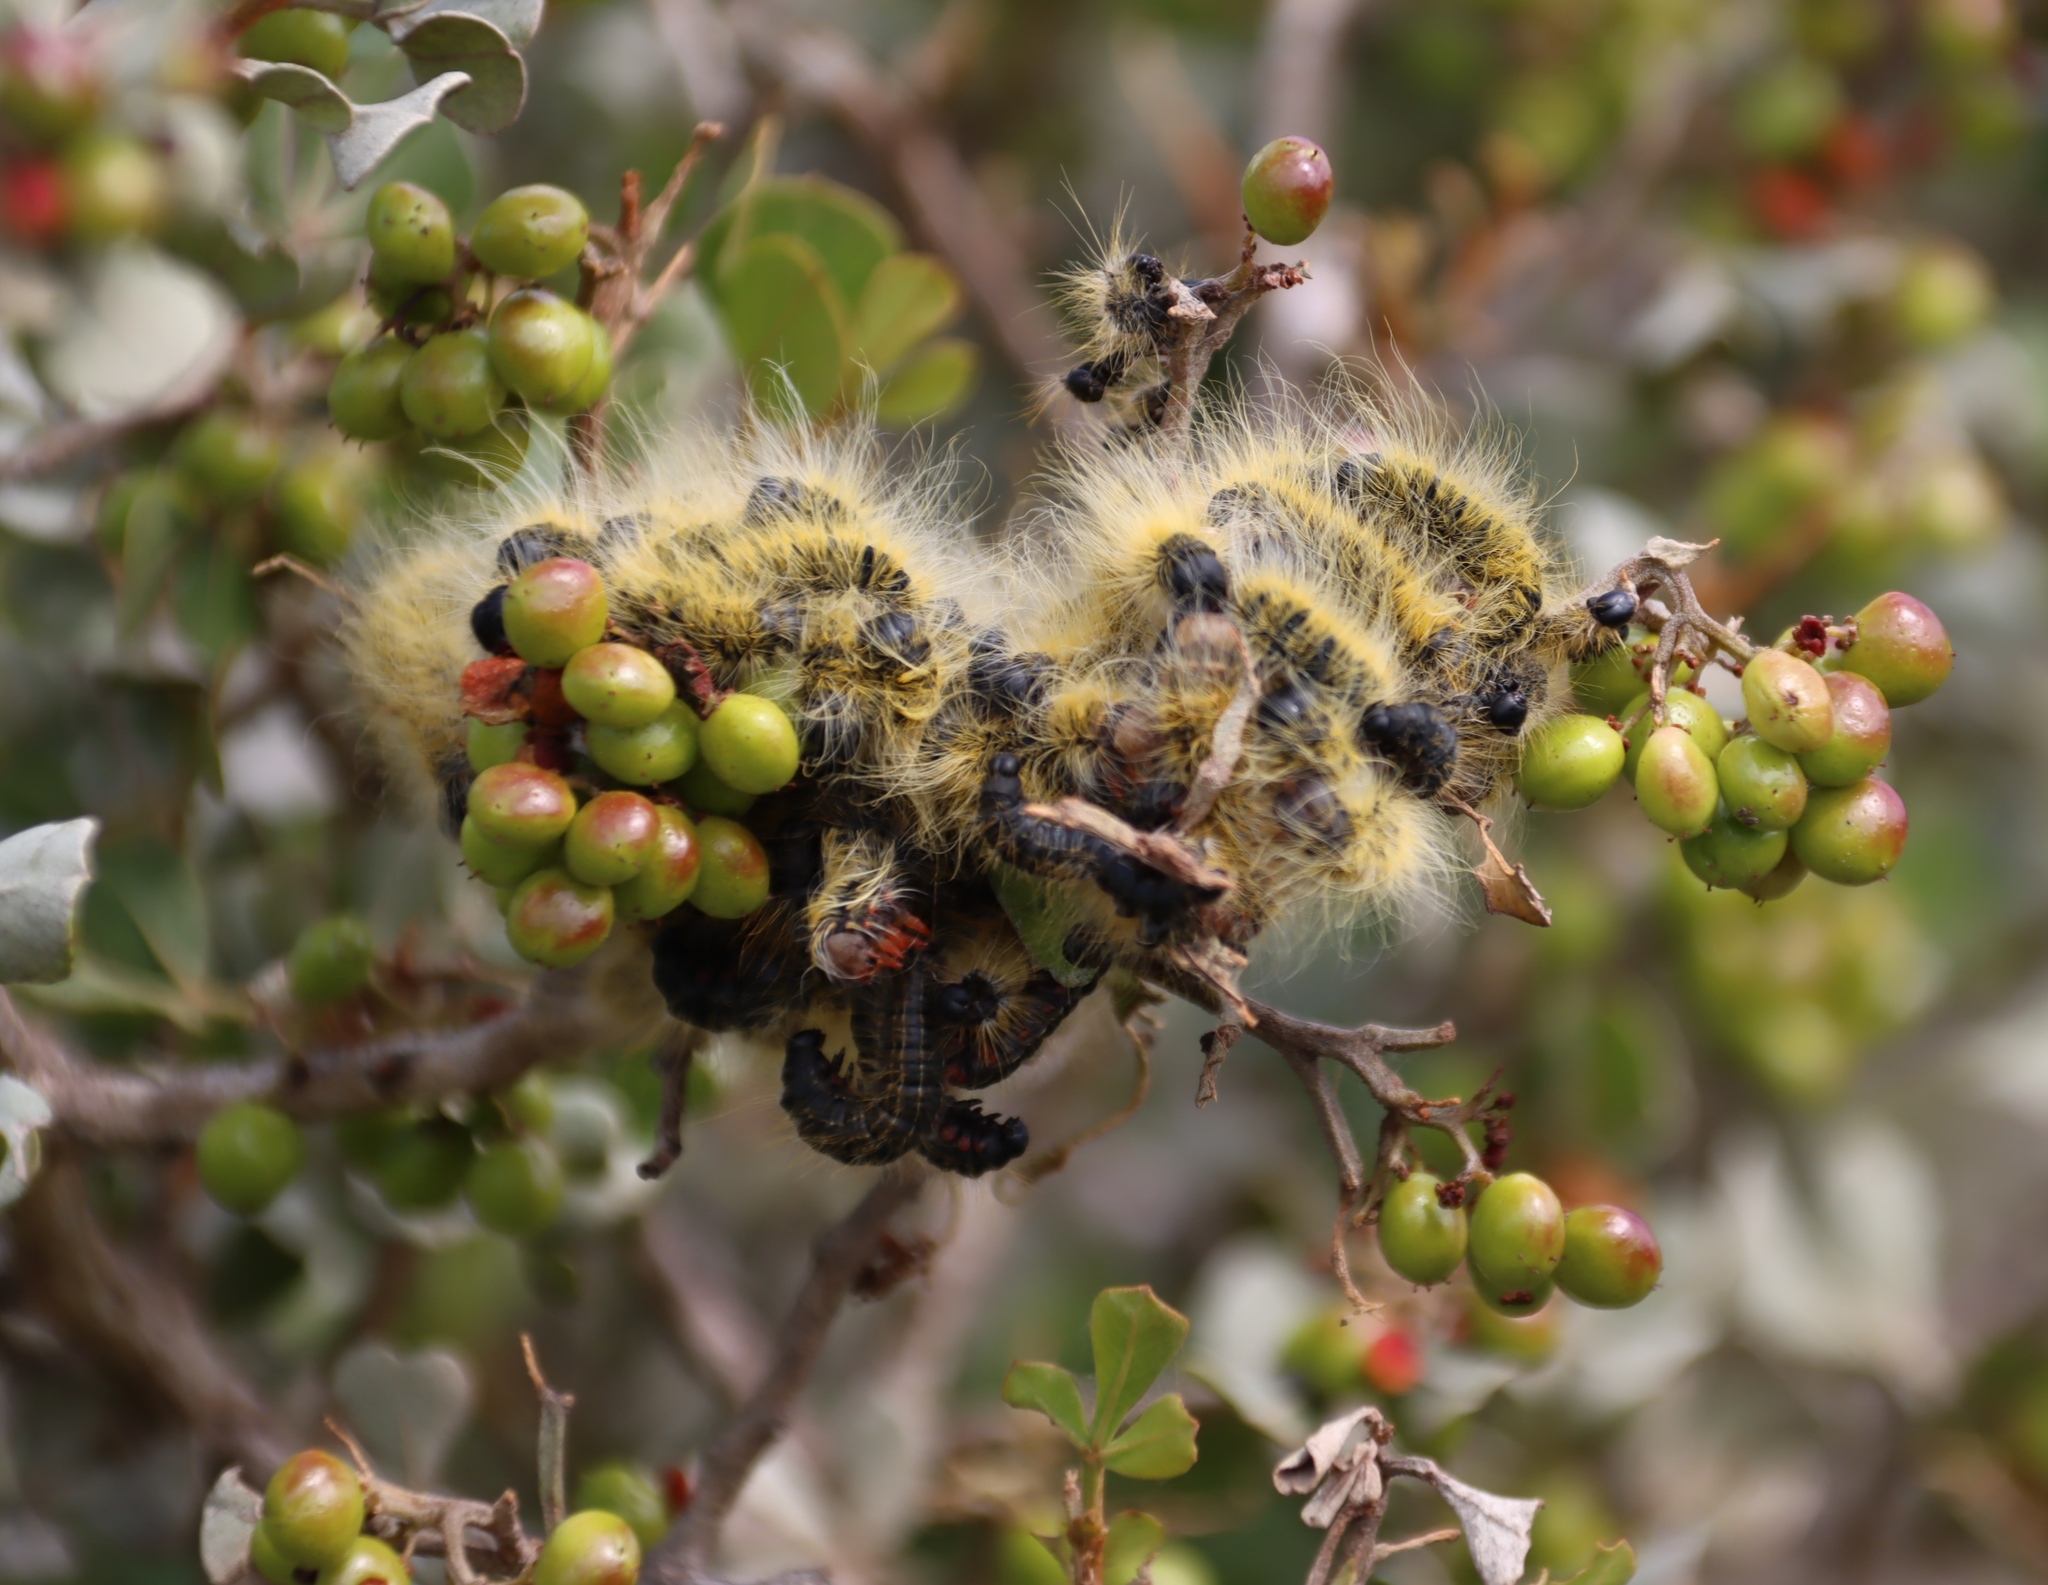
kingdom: Animalia
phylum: Arthropoda
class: Insecta
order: Lepidoptera
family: Lasiocampidae
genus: Bombycomorpha
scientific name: Bombycomorpha bifascia
